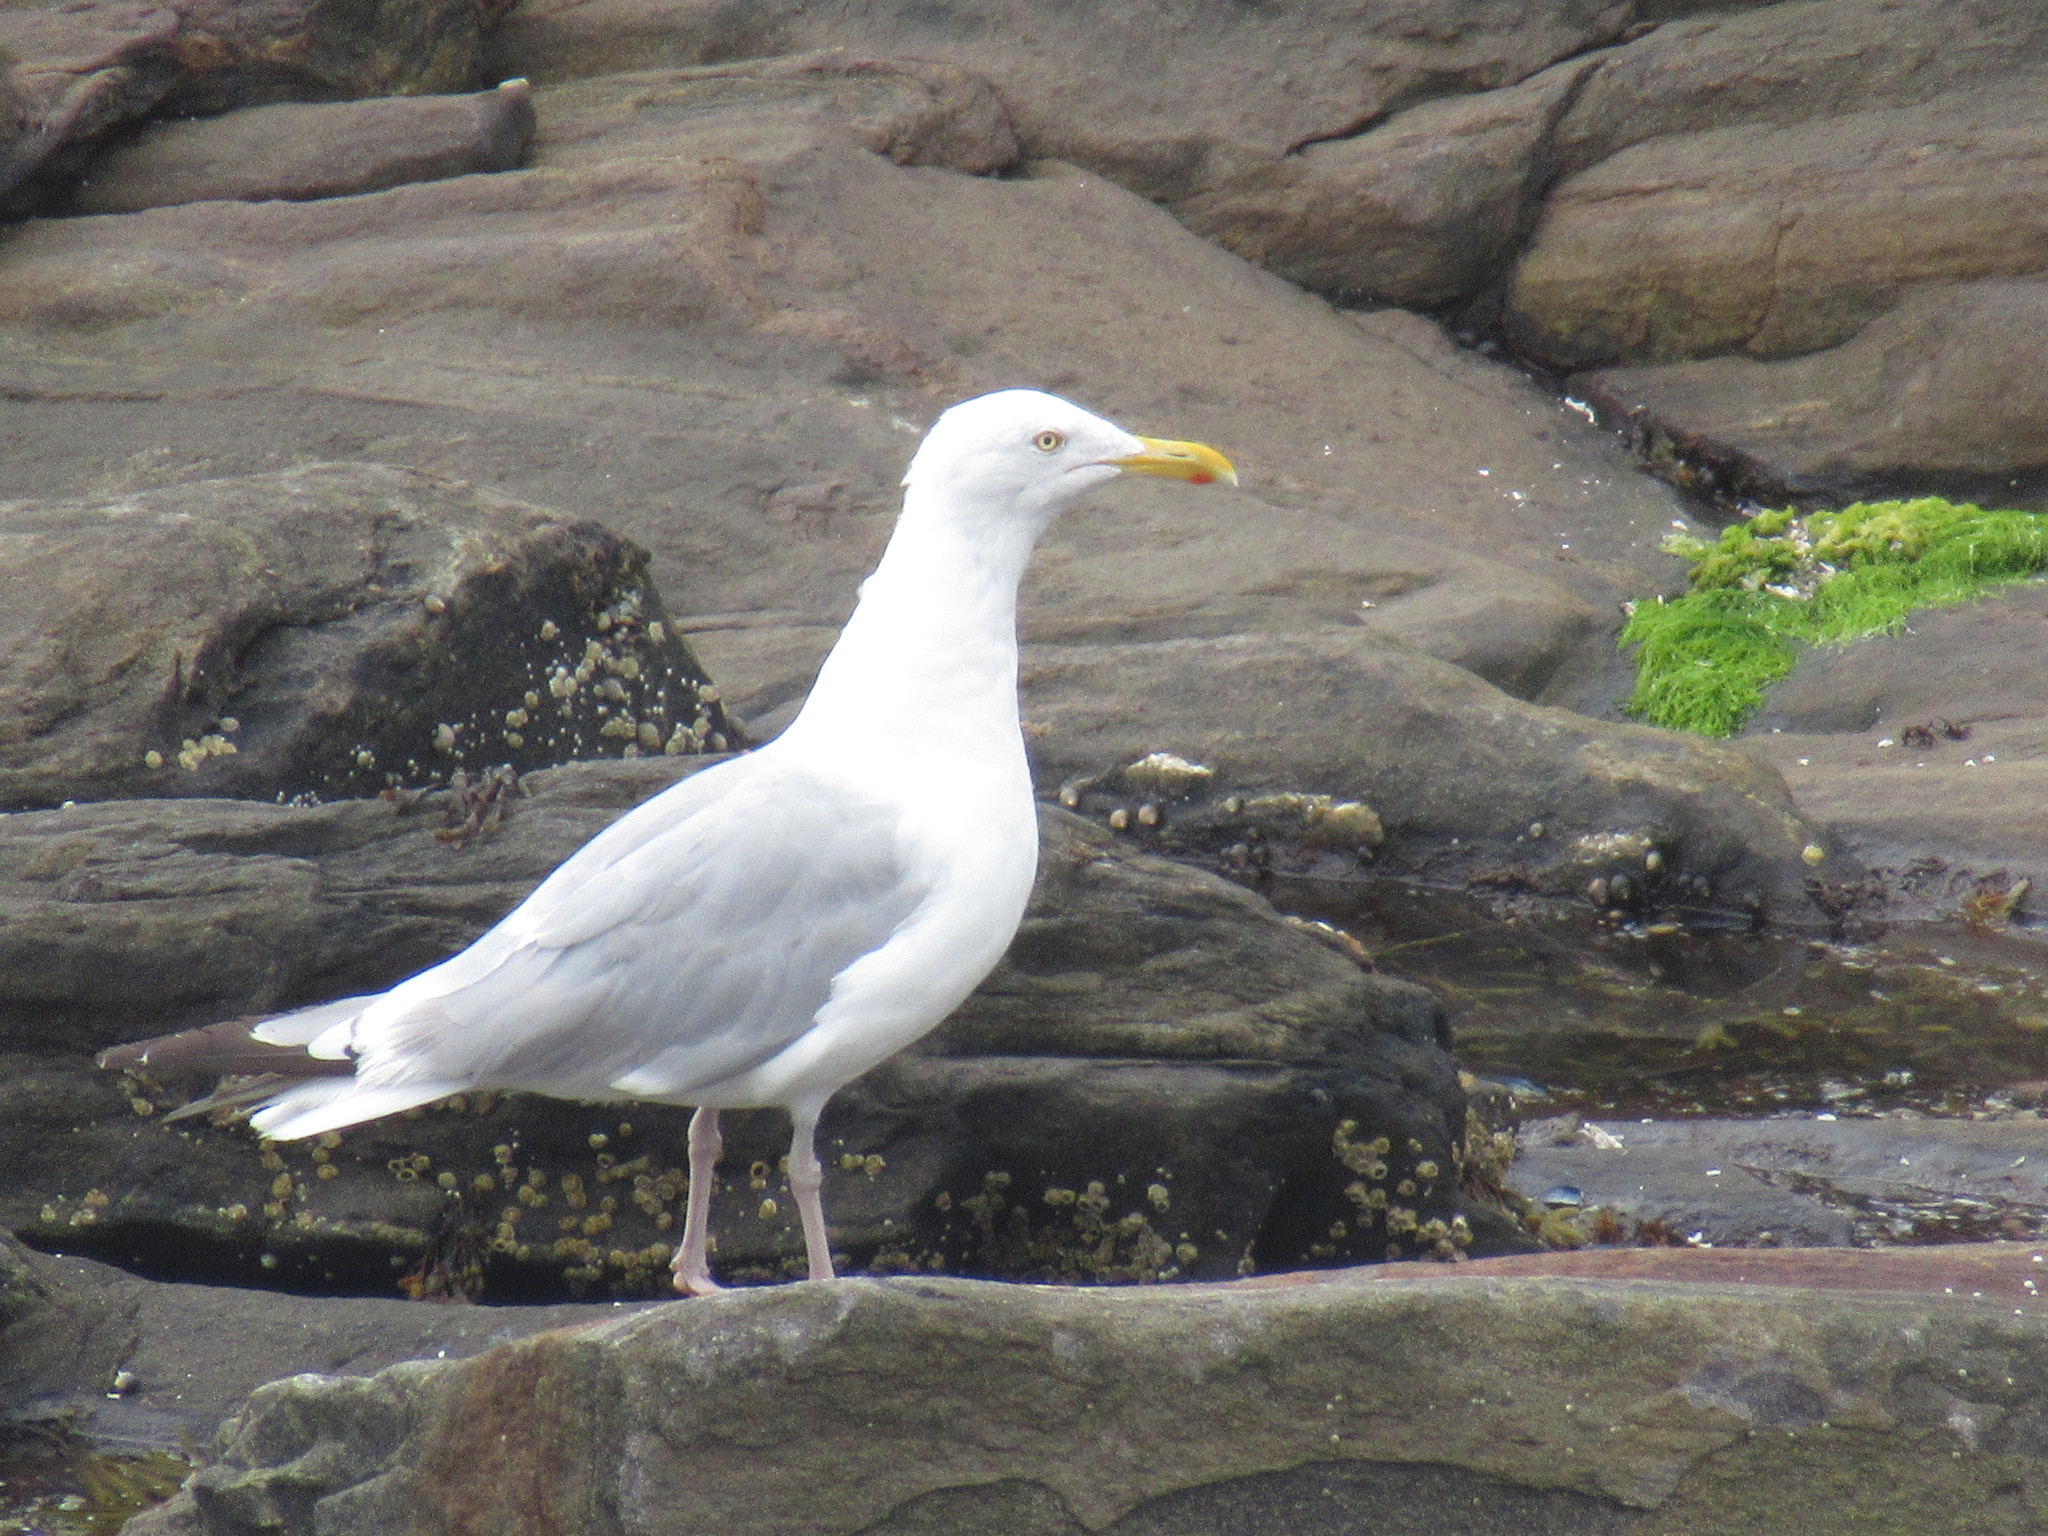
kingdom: Animalia
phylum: Chordata
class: Aves
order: Charadriiformes
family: Laridae
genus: Larus
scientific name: Larus argentatus
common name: Herring gull
